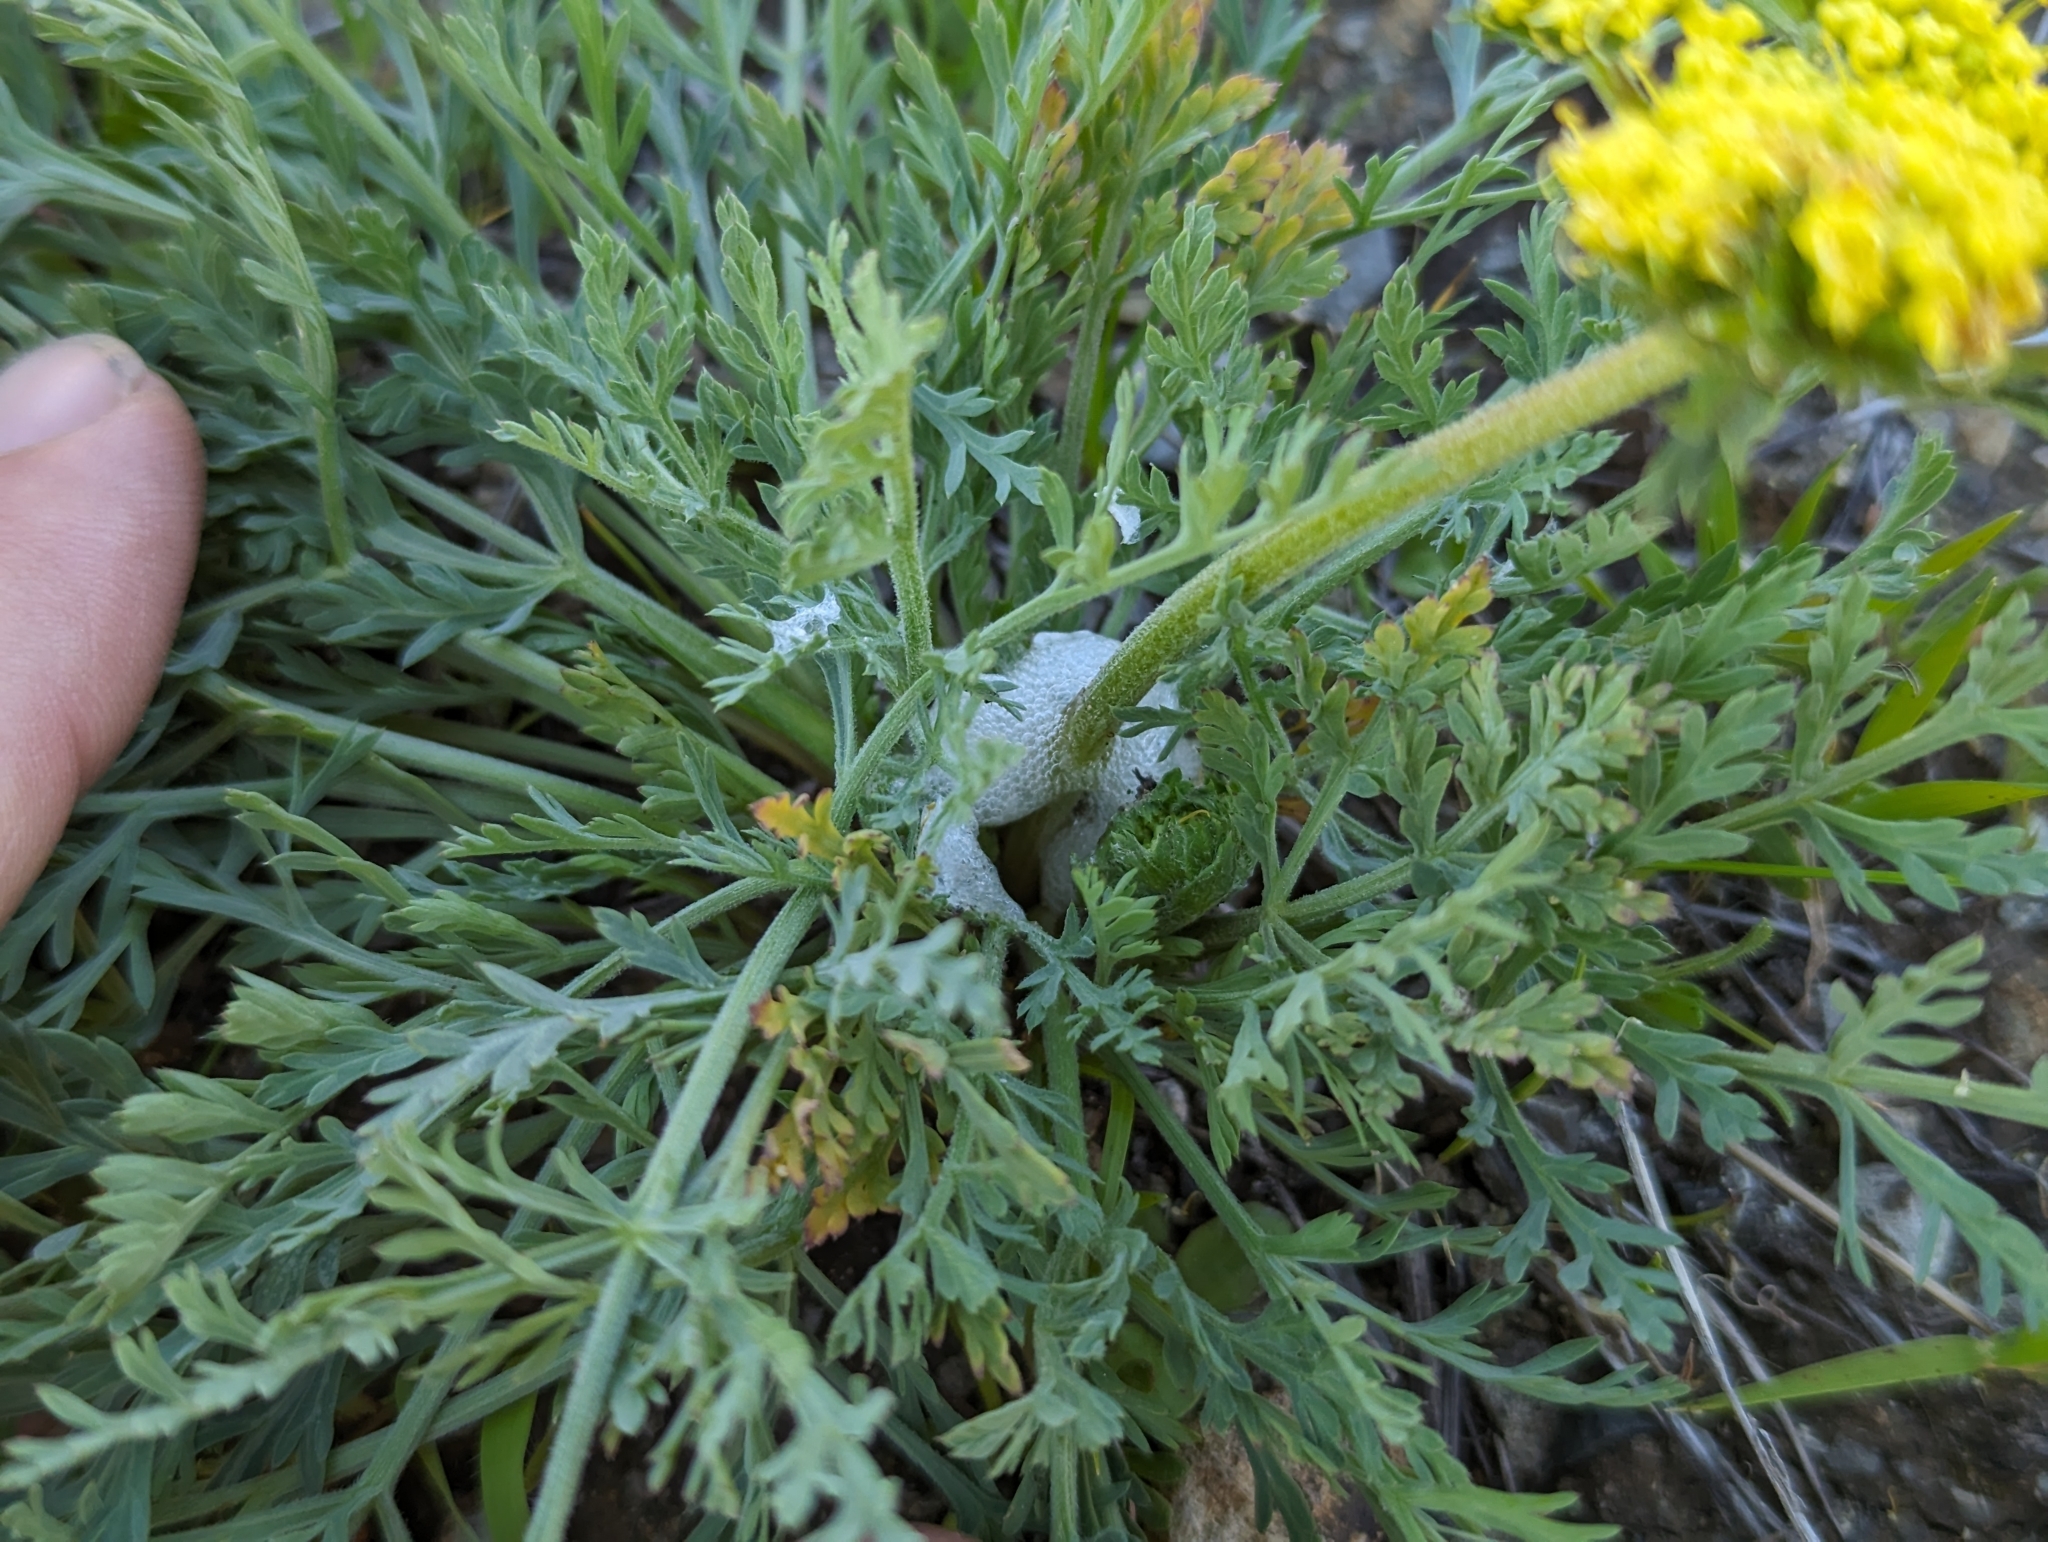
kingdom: Plantae
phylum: Tracheophyta
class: Magnoliopsida
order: Apiales
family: Apiaceae
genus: Lomatium
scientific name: Lomatium macrocarpum
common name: Big-seed biscuitroot
